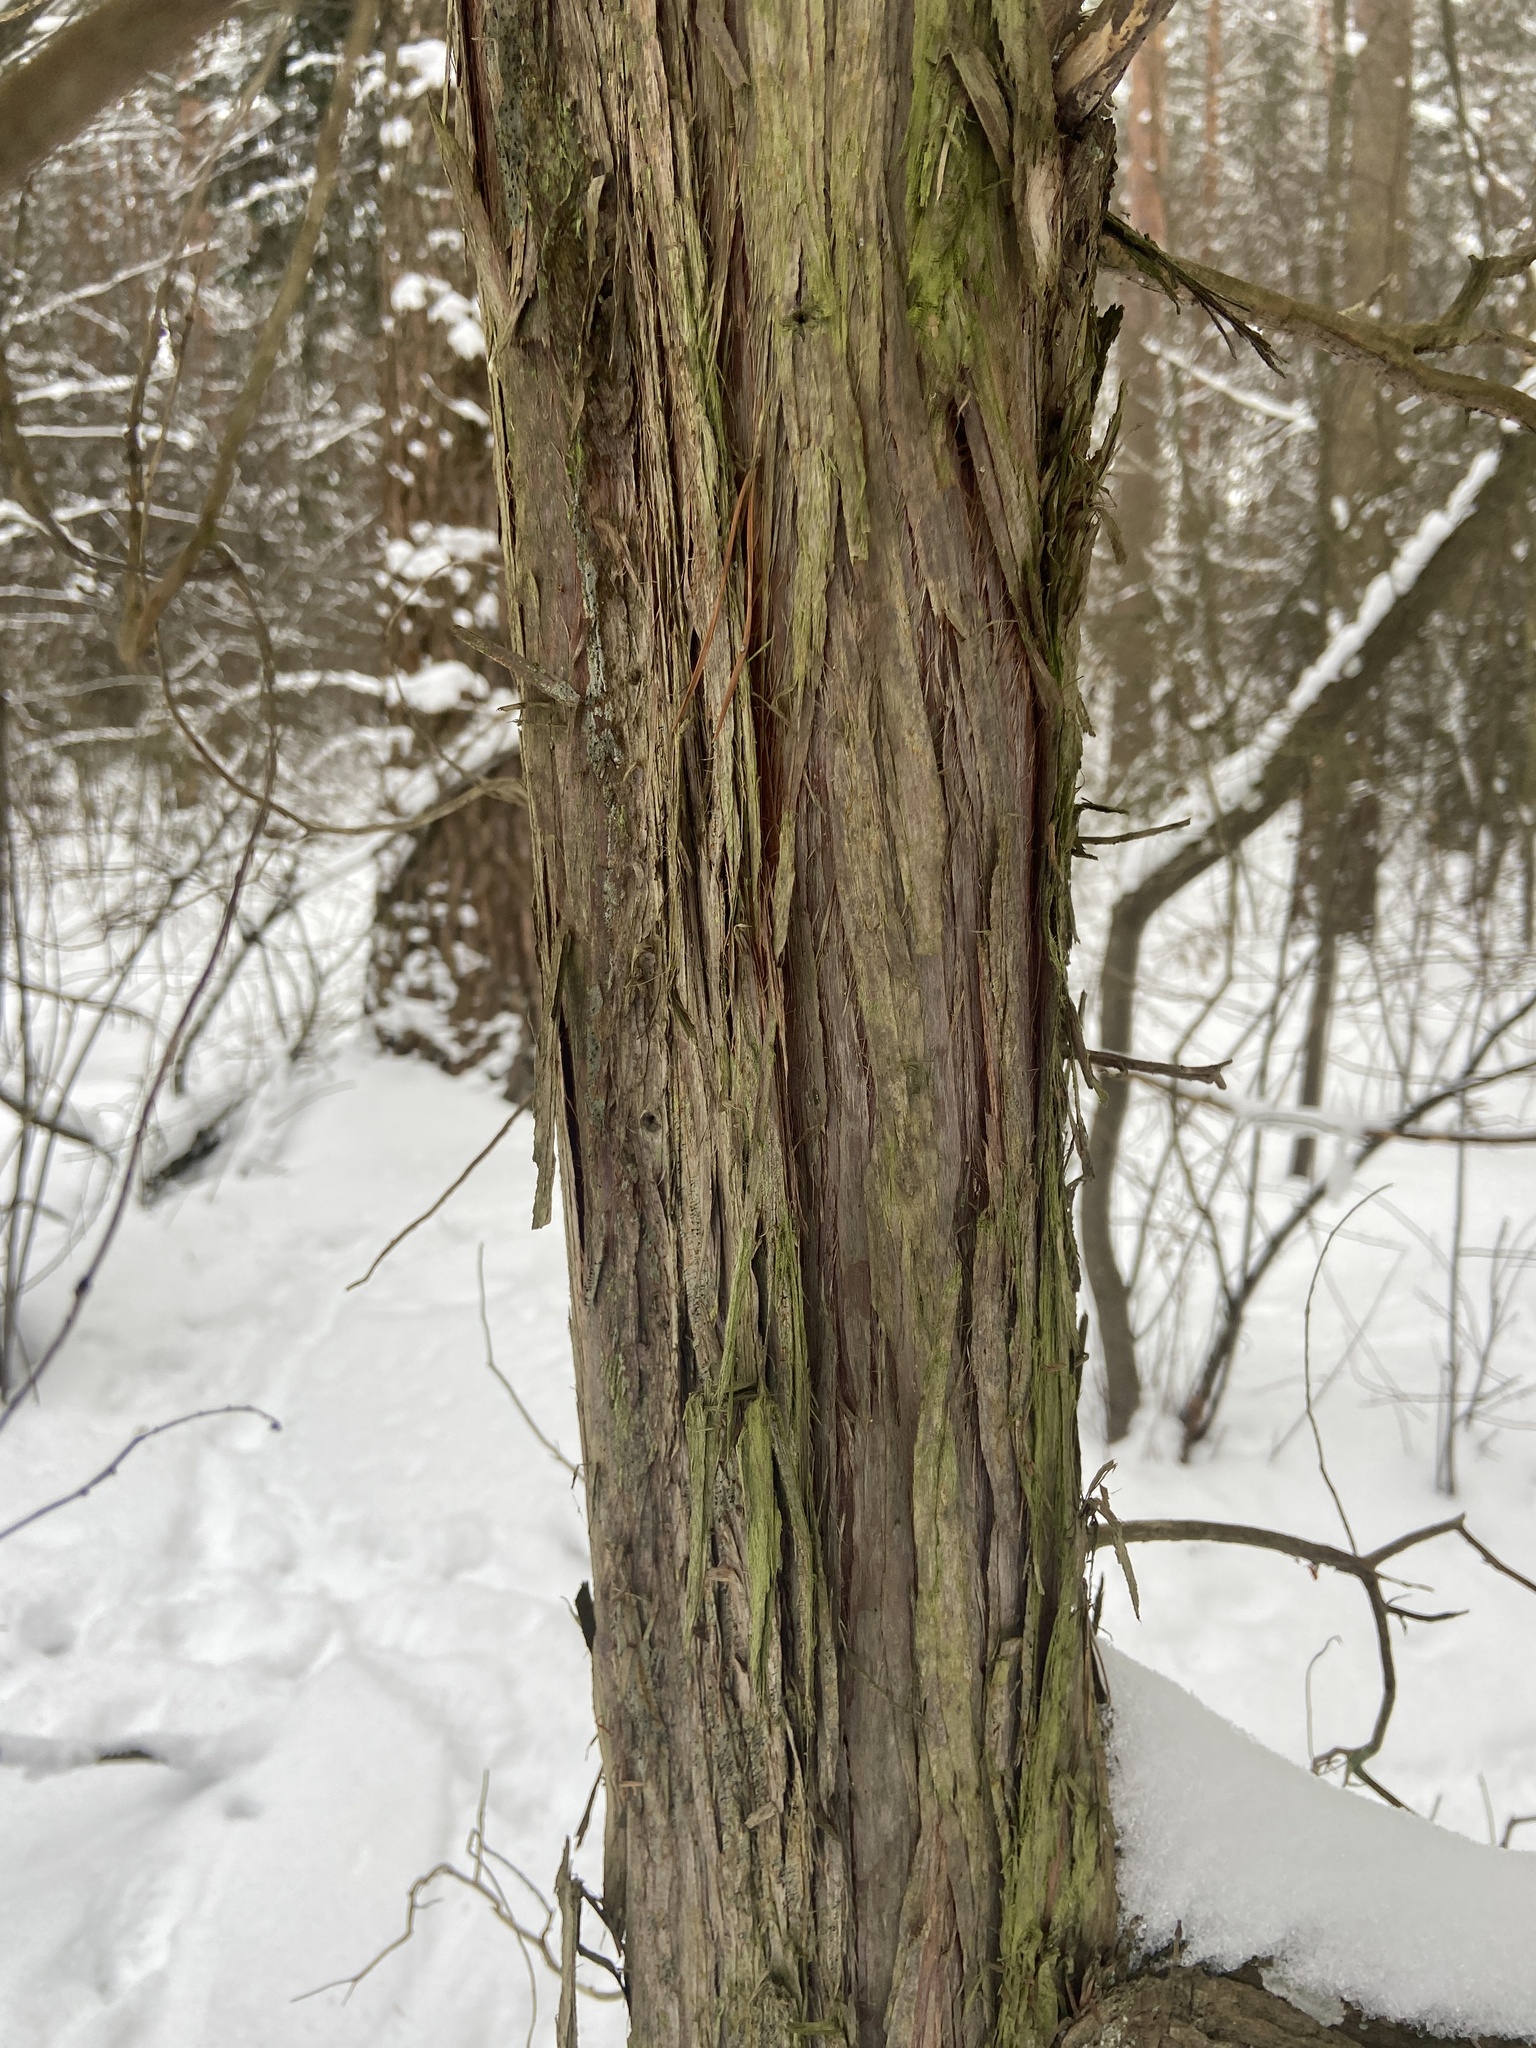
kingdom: Plantae
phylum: Tracheophyta
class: Pinopsida
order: Pinales
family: Cupressaceae
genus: Juniperus
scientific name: Juniperus communis
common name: Common juniper
